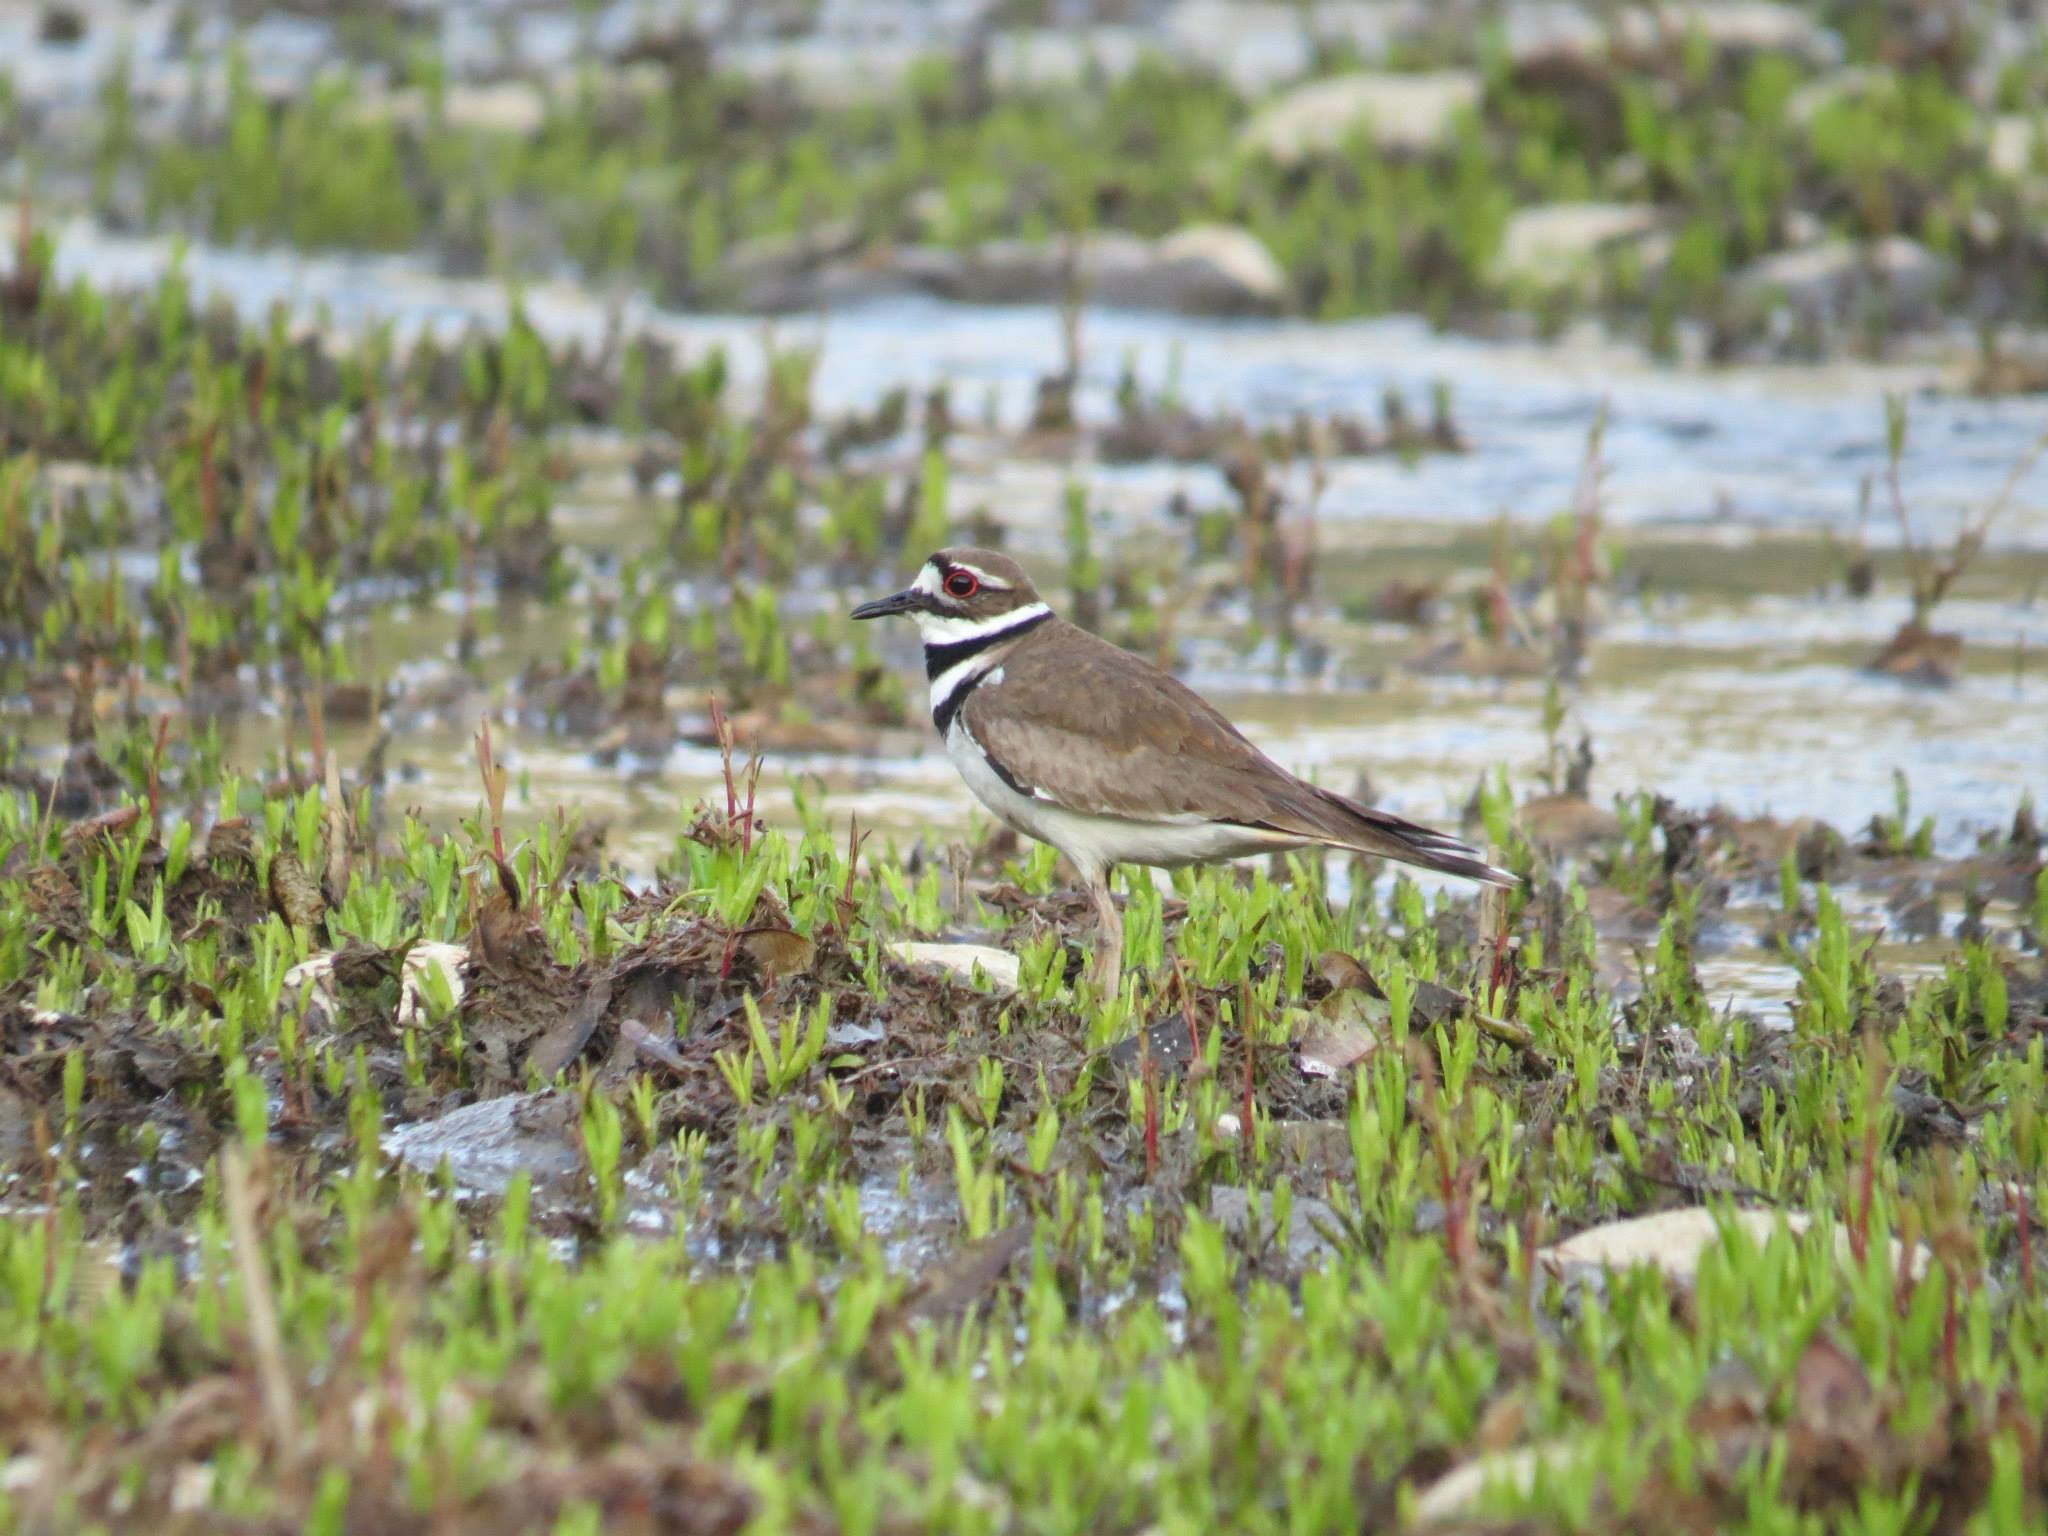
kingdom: Animalia
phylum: Chordata
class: Aves
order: Charadriiformes
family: Charadriidae
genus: Charadrius
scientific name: Charadrius vociferus
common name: Killdeer
